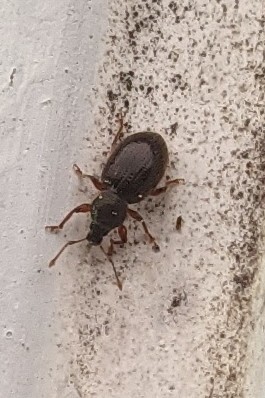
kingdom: Animalia
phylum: Arthropoda
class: Insecta
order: Coleoptera
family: Curculionidae
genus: Otiorhynchus
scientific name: Otiorhynchus ovatus
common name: Strawberry root weevil
